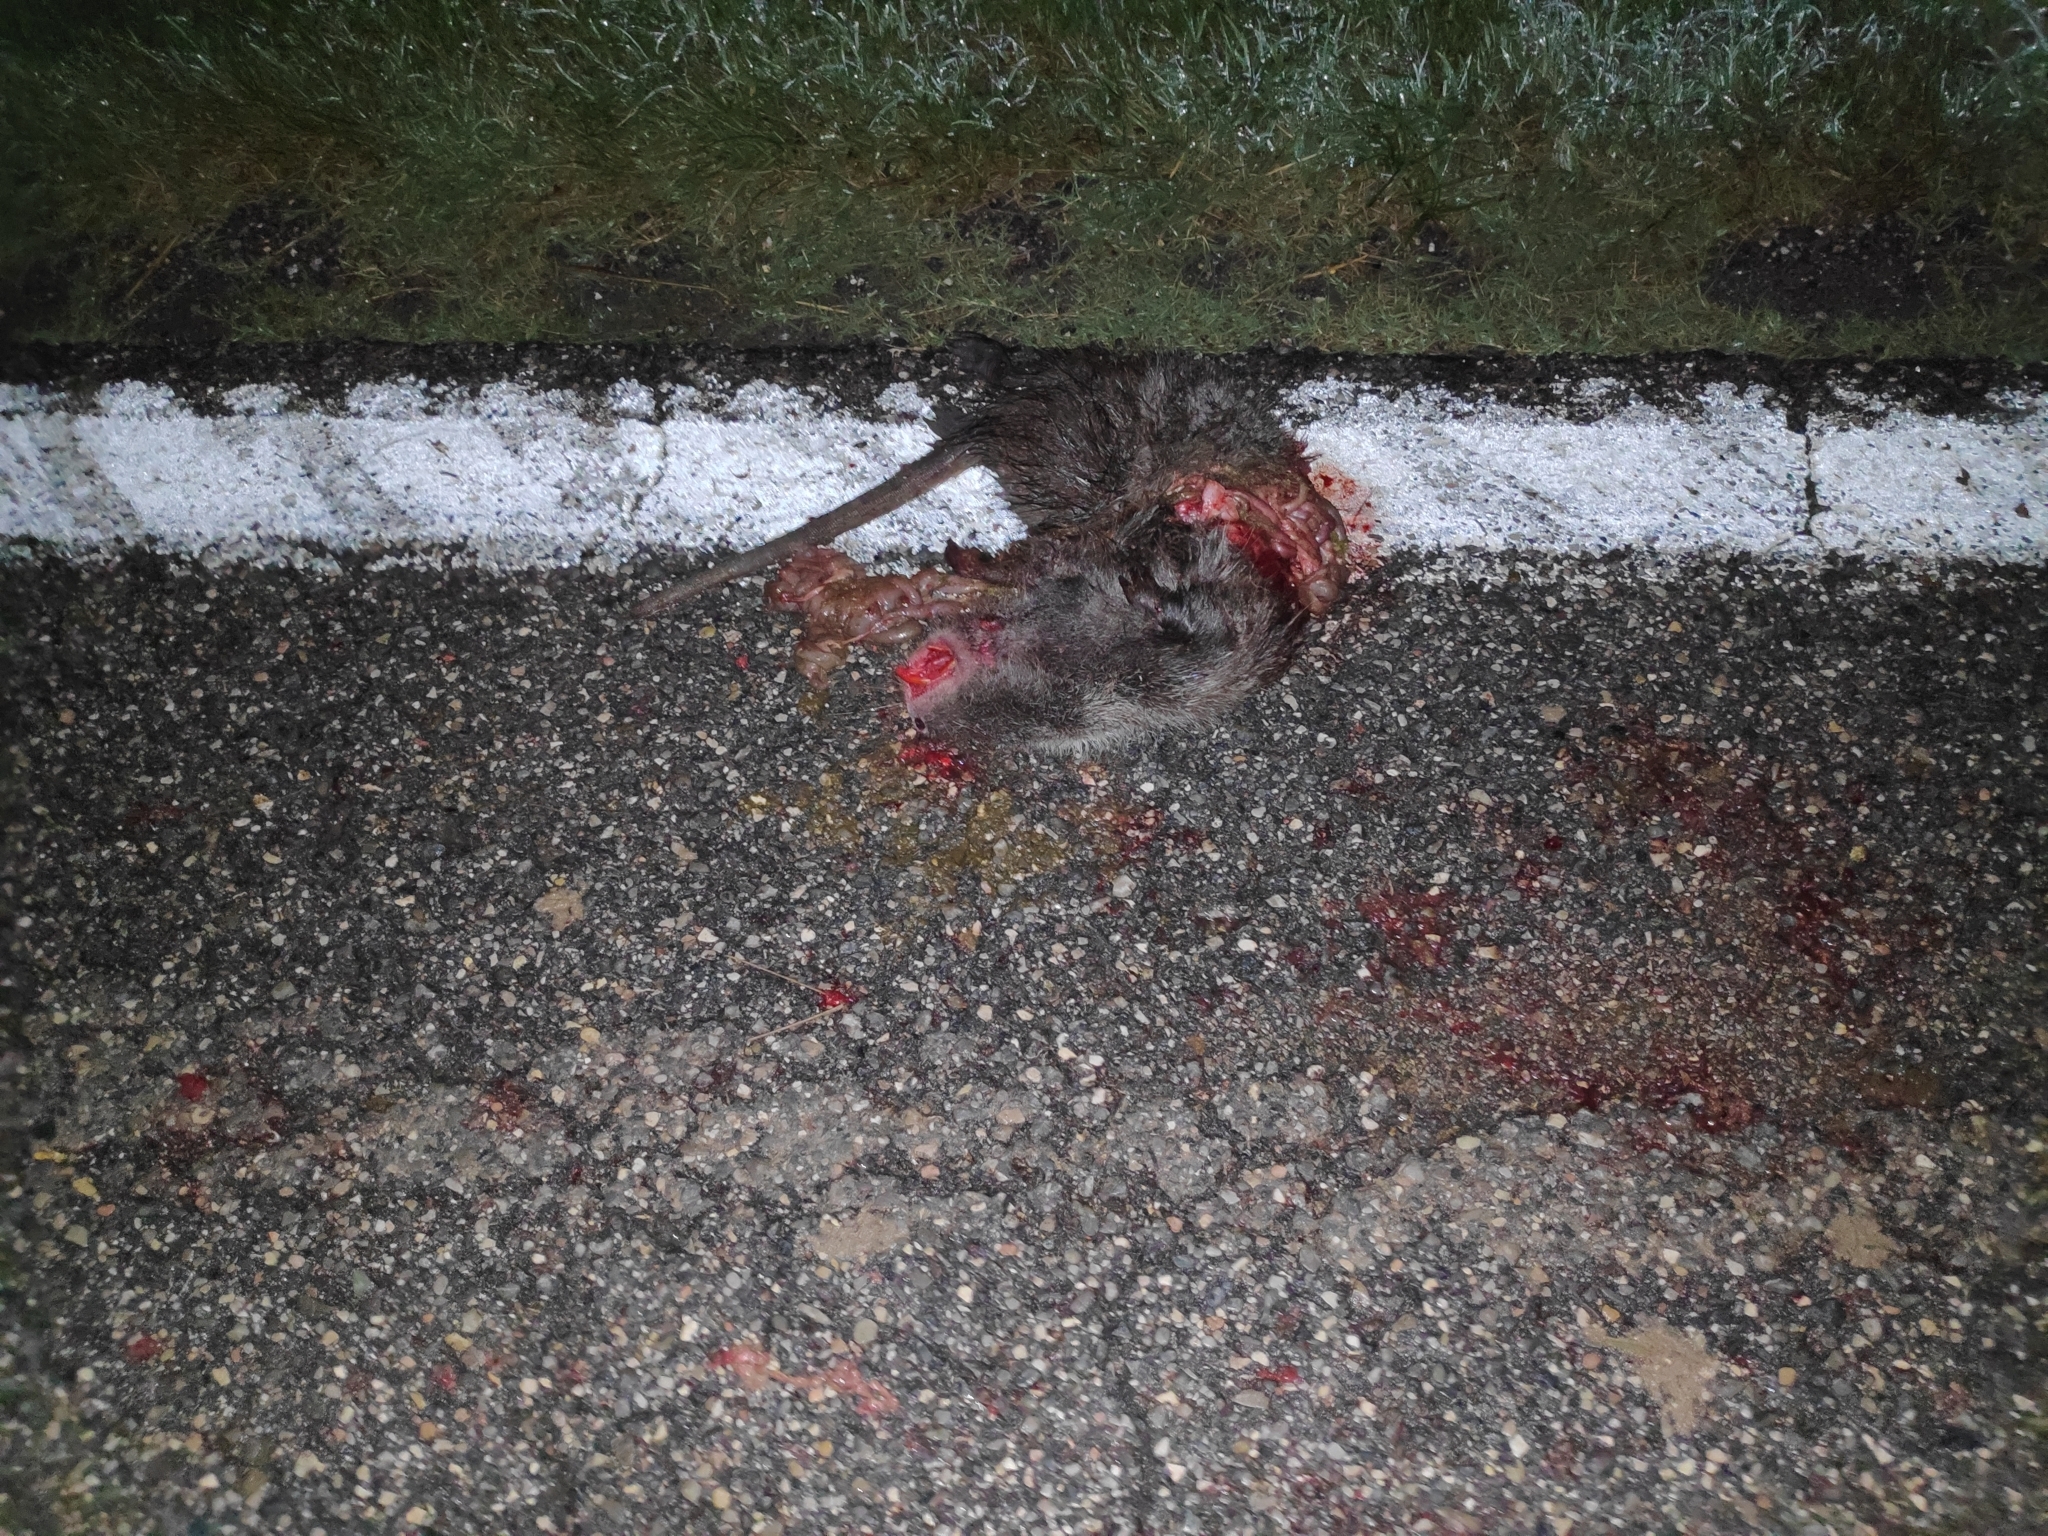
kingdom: Animalia
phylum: Chordata
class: Mammalia
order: Rodentia
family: Myocastoridae
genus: Myocastor
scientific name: Myocastor coypus
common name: Coypu
